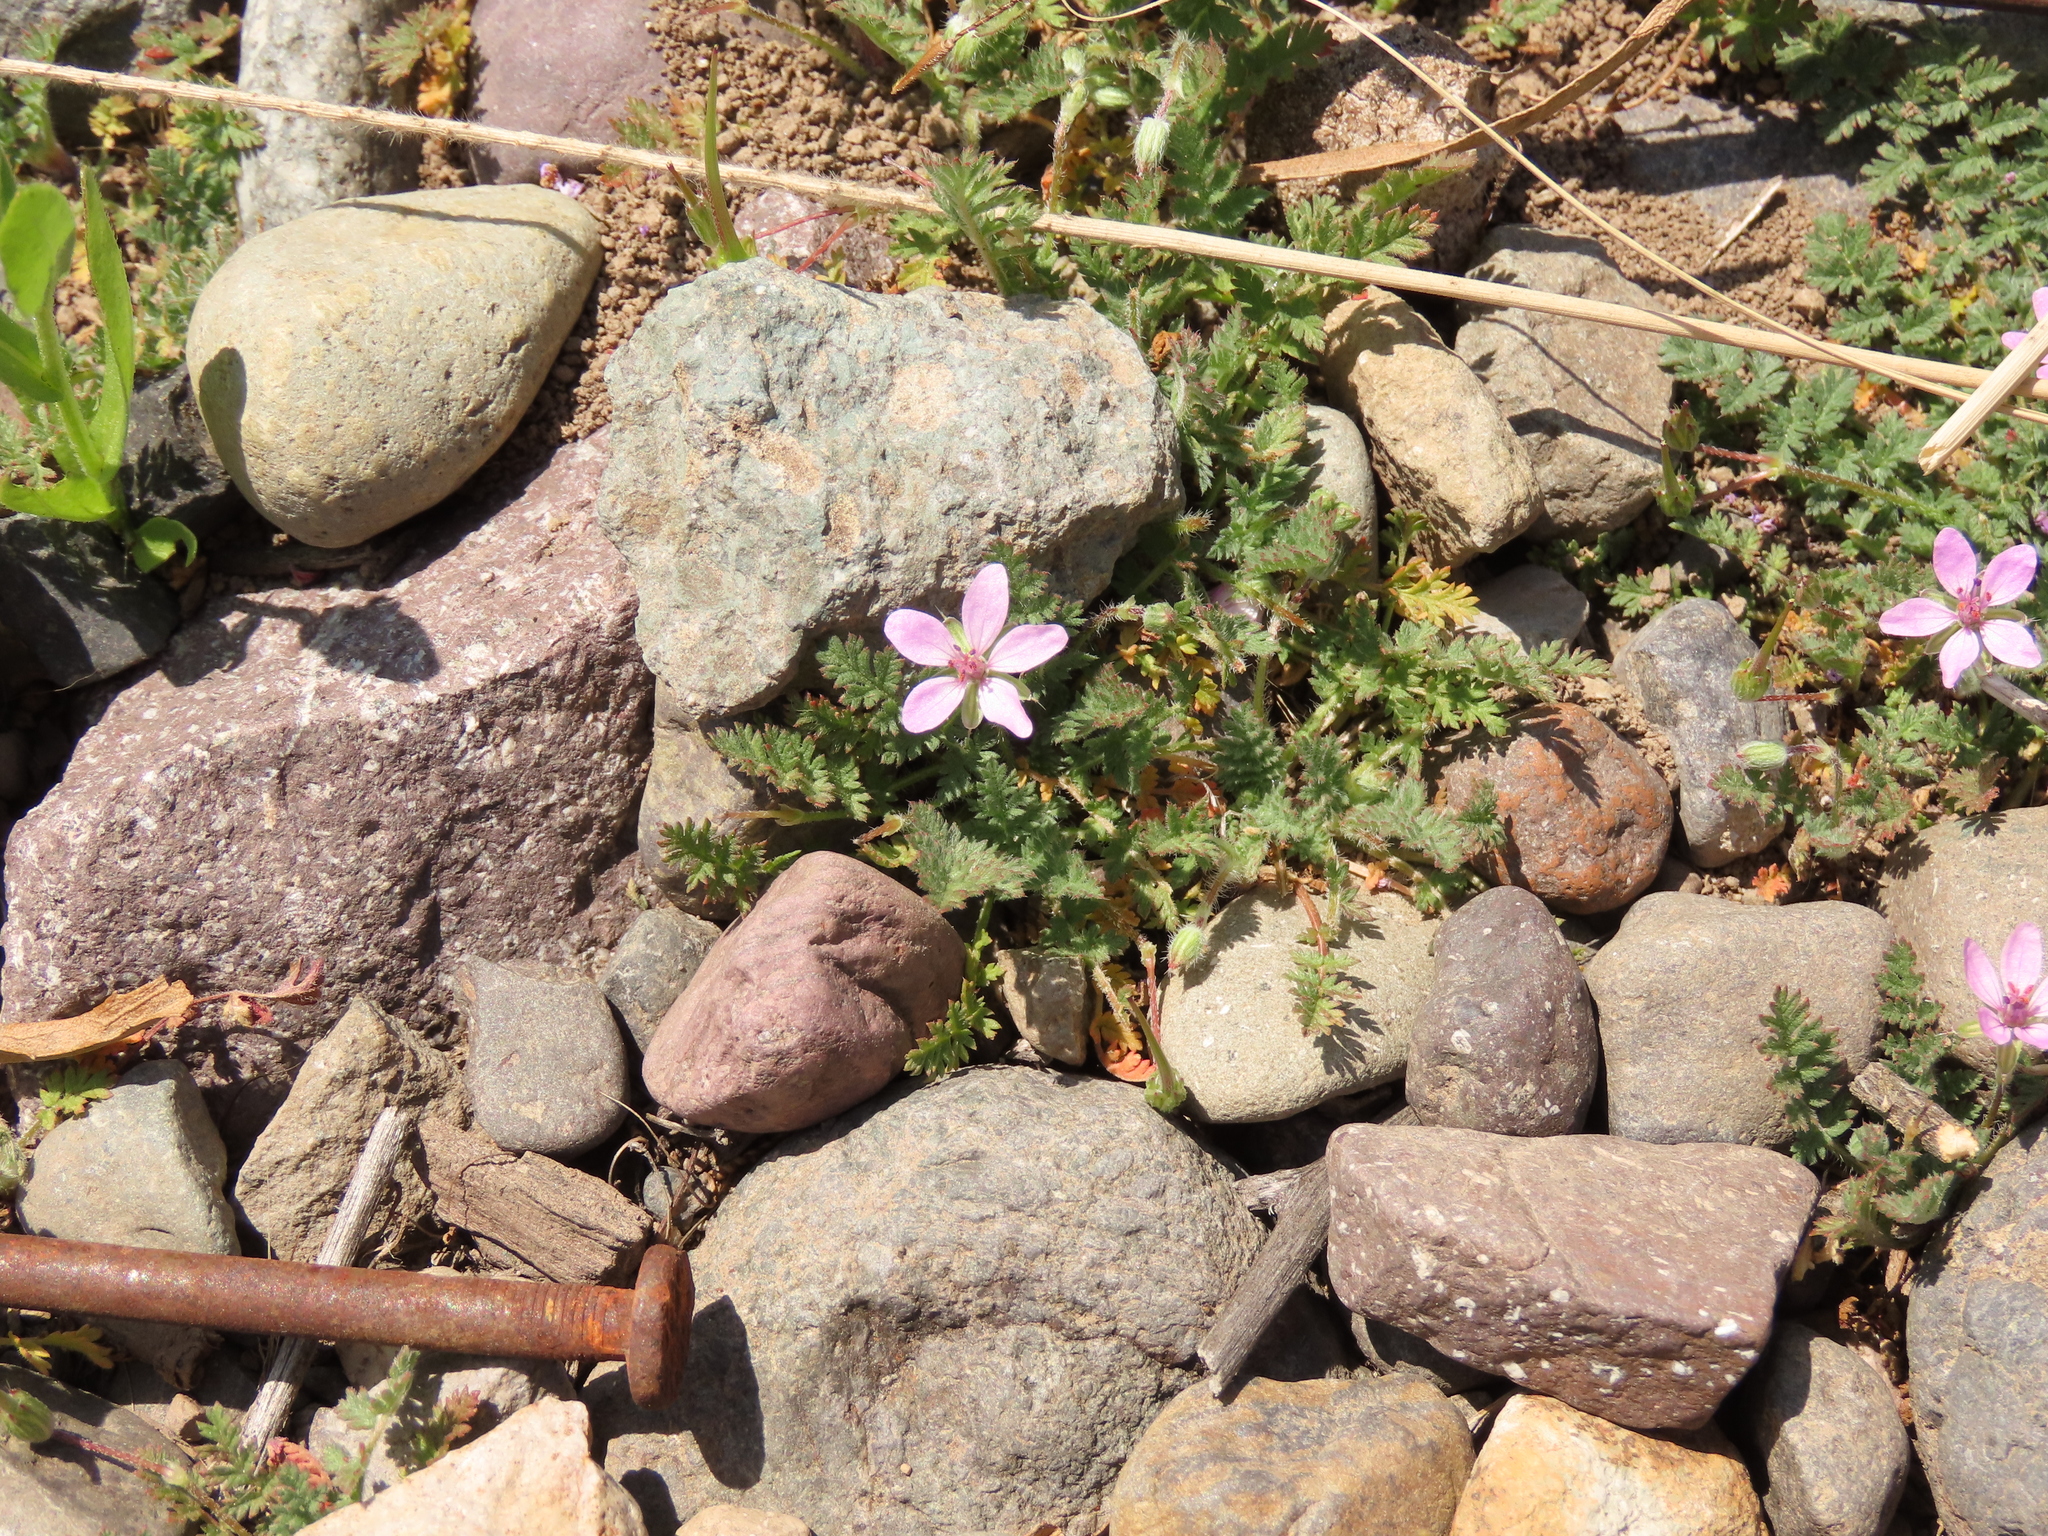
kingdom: Plantae
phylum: Tracheophyta
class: Magnoliopsida
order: Geraniales
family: Geraniaceae
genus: Erodium
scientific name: Erodium cicutarium
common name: Common stork's-bill
